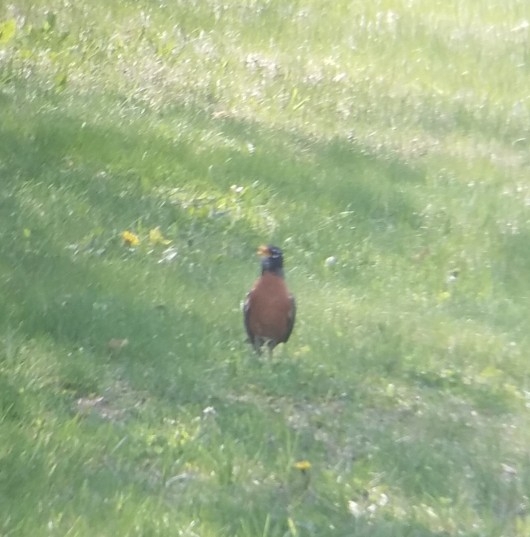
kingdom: Animalia
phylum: Chordata
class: Aves
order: Passeriformes
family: Turdidae
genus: Turdus
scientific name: Turdus migratorius
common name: American robin
